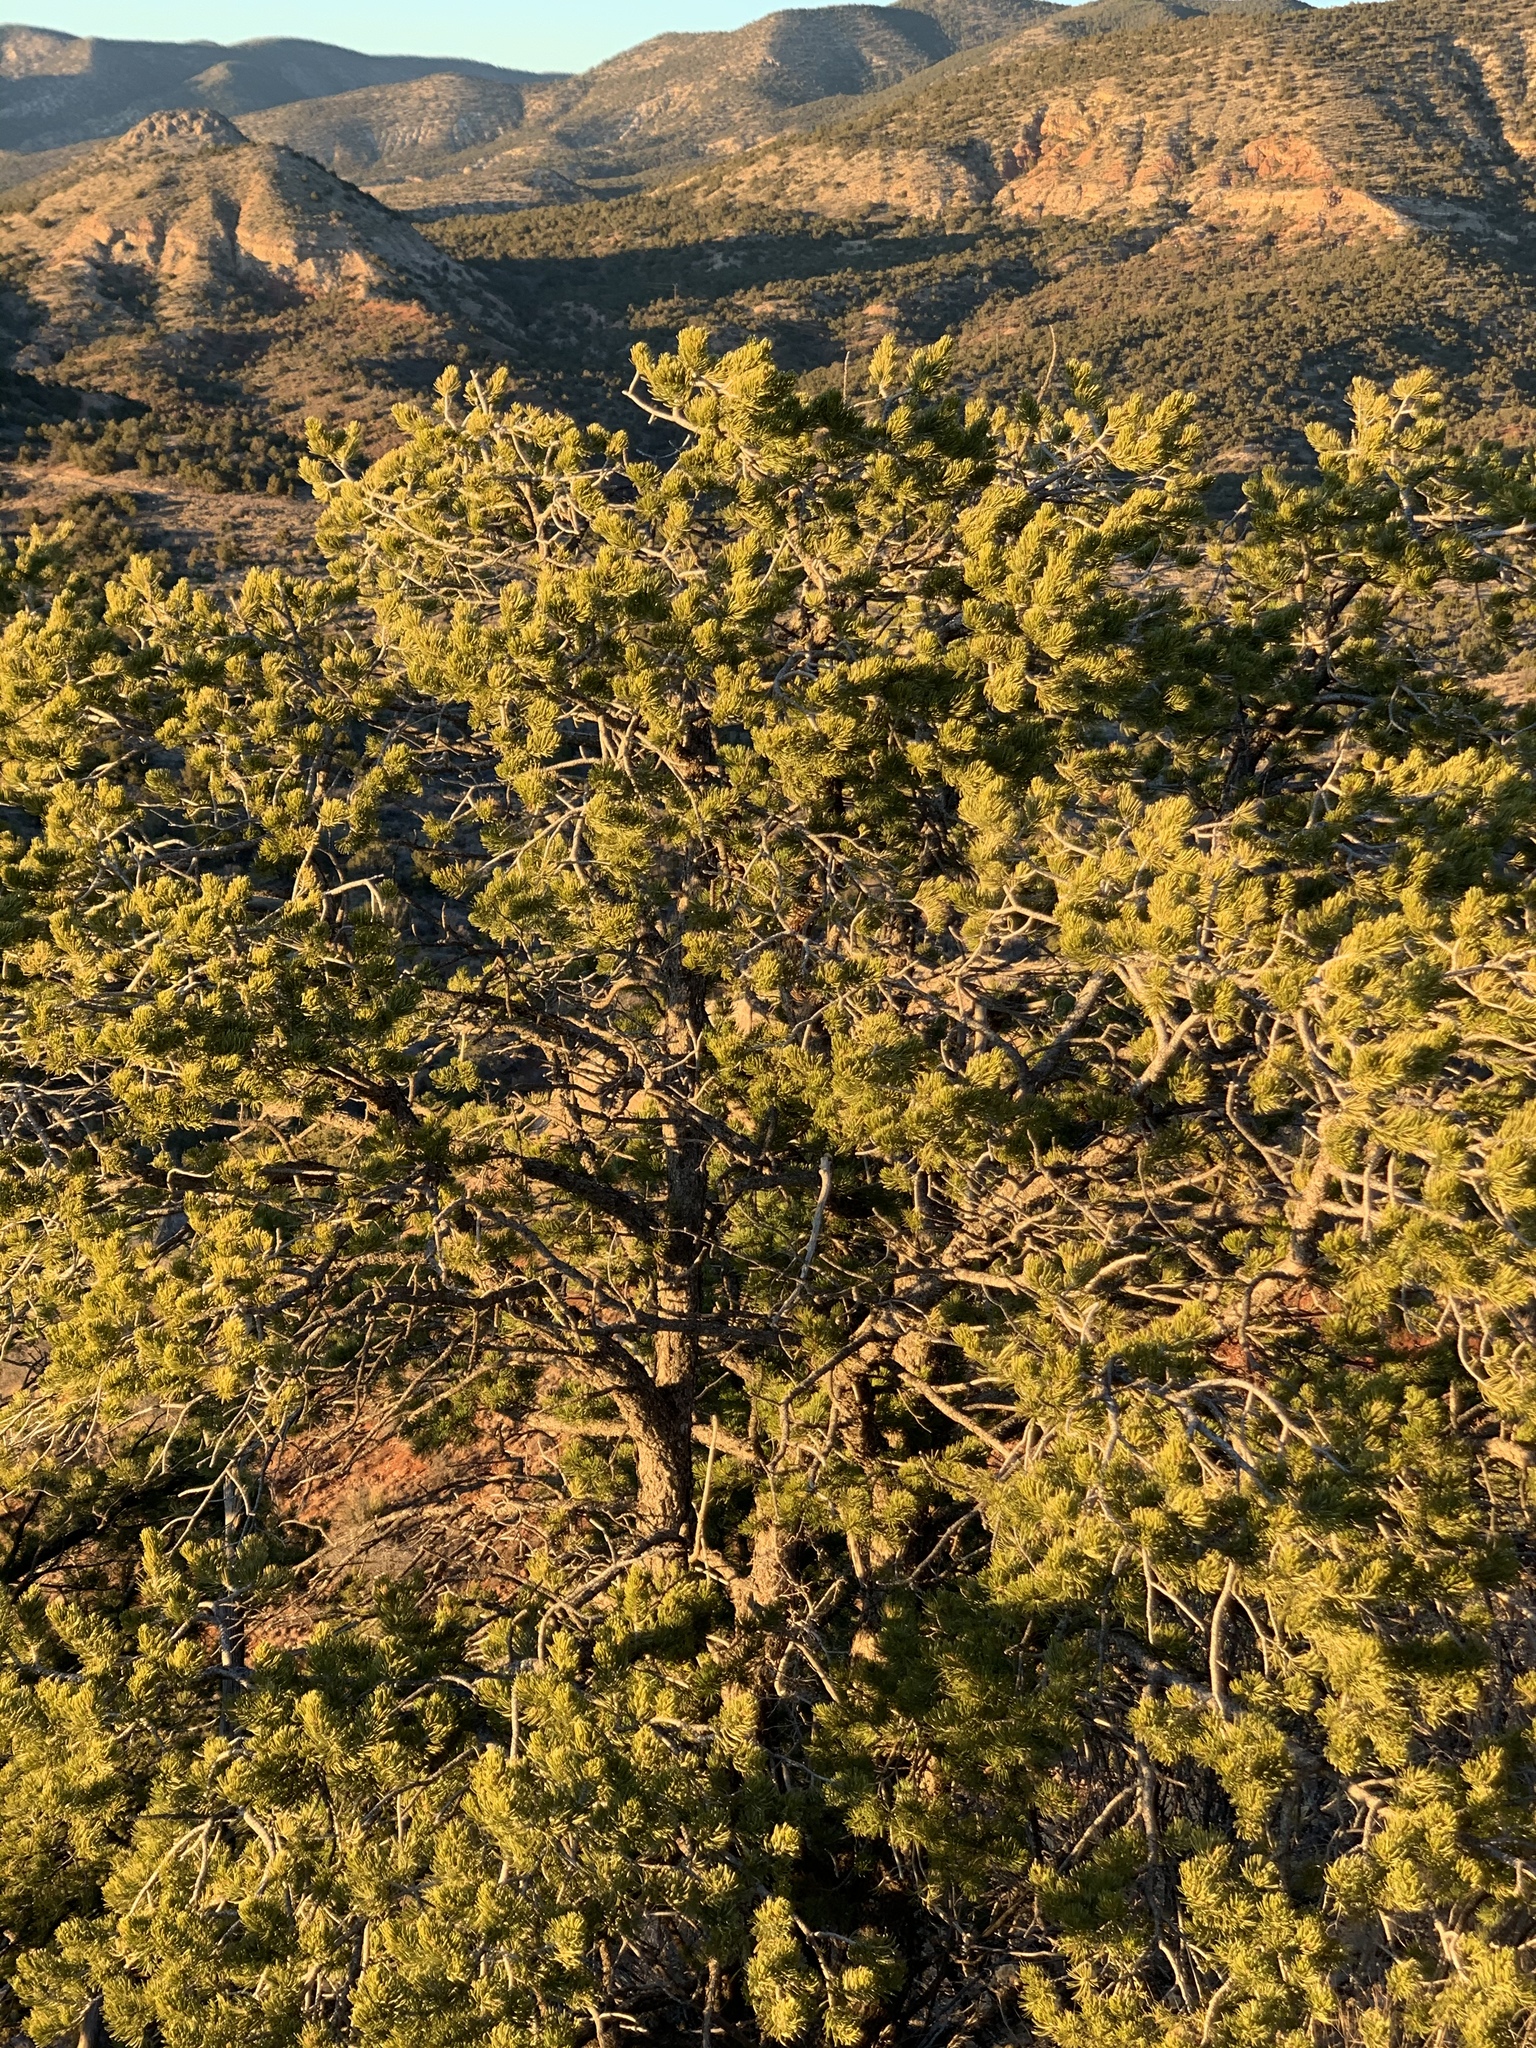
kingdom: Plantae
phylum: Tracheophyta
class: Pinopsida
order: Pinales
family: Pinaceae
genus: Pinus
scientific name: Pinus edulis
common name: Colorado pinyon
